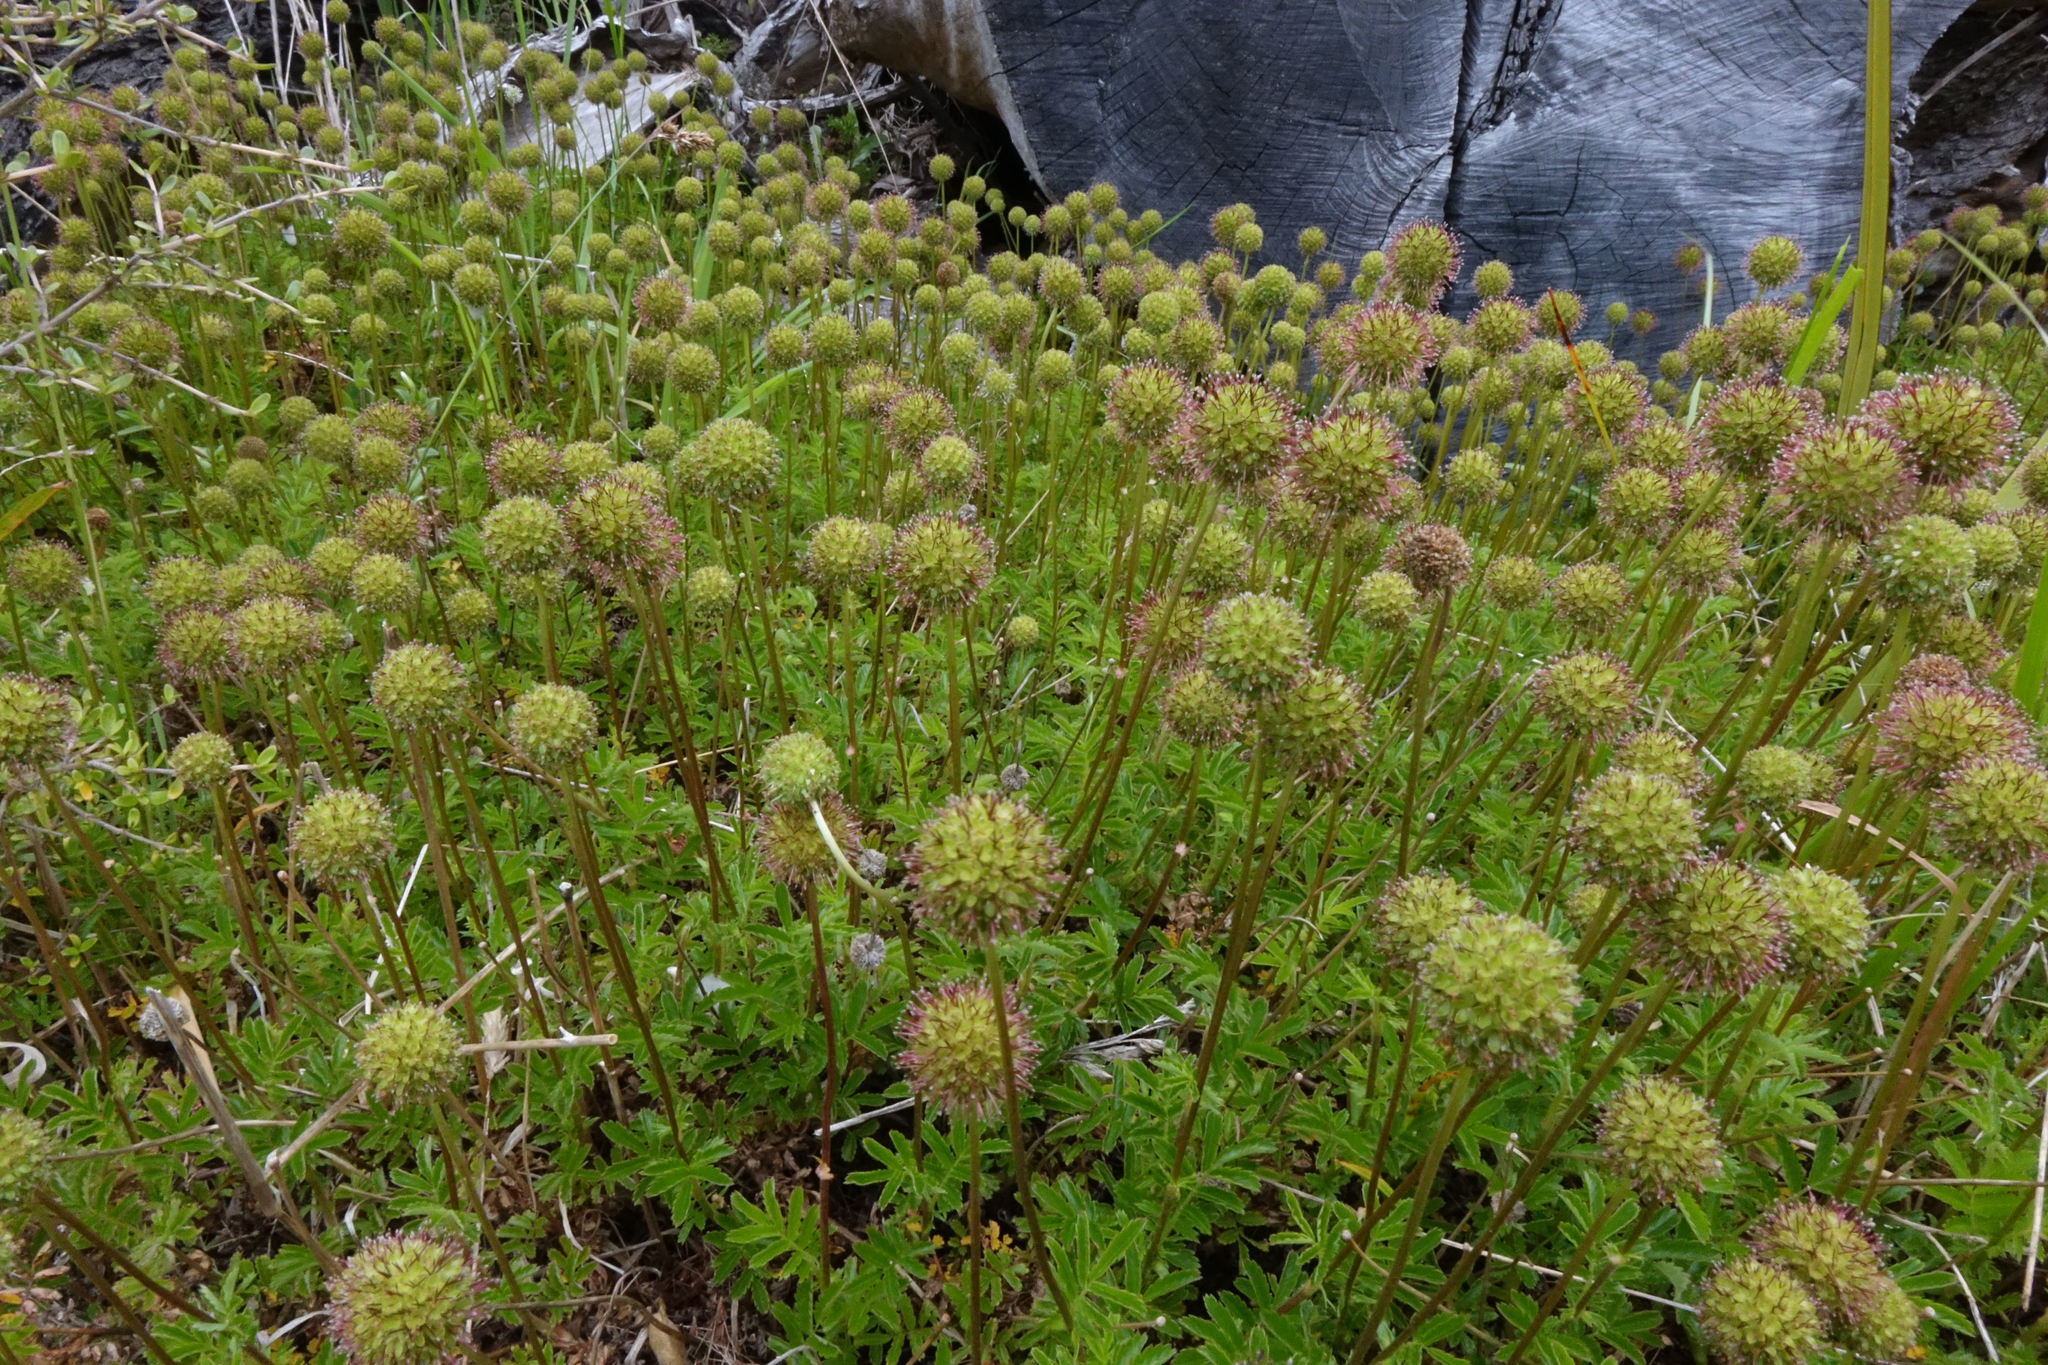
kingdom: Plantae
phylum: Tracheophyta
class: Magnoliopsida
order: Rosales
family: Rosaceae
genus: Acaena
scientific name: Acaena novae-zelandiae
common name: Pirri-pirri-bur
